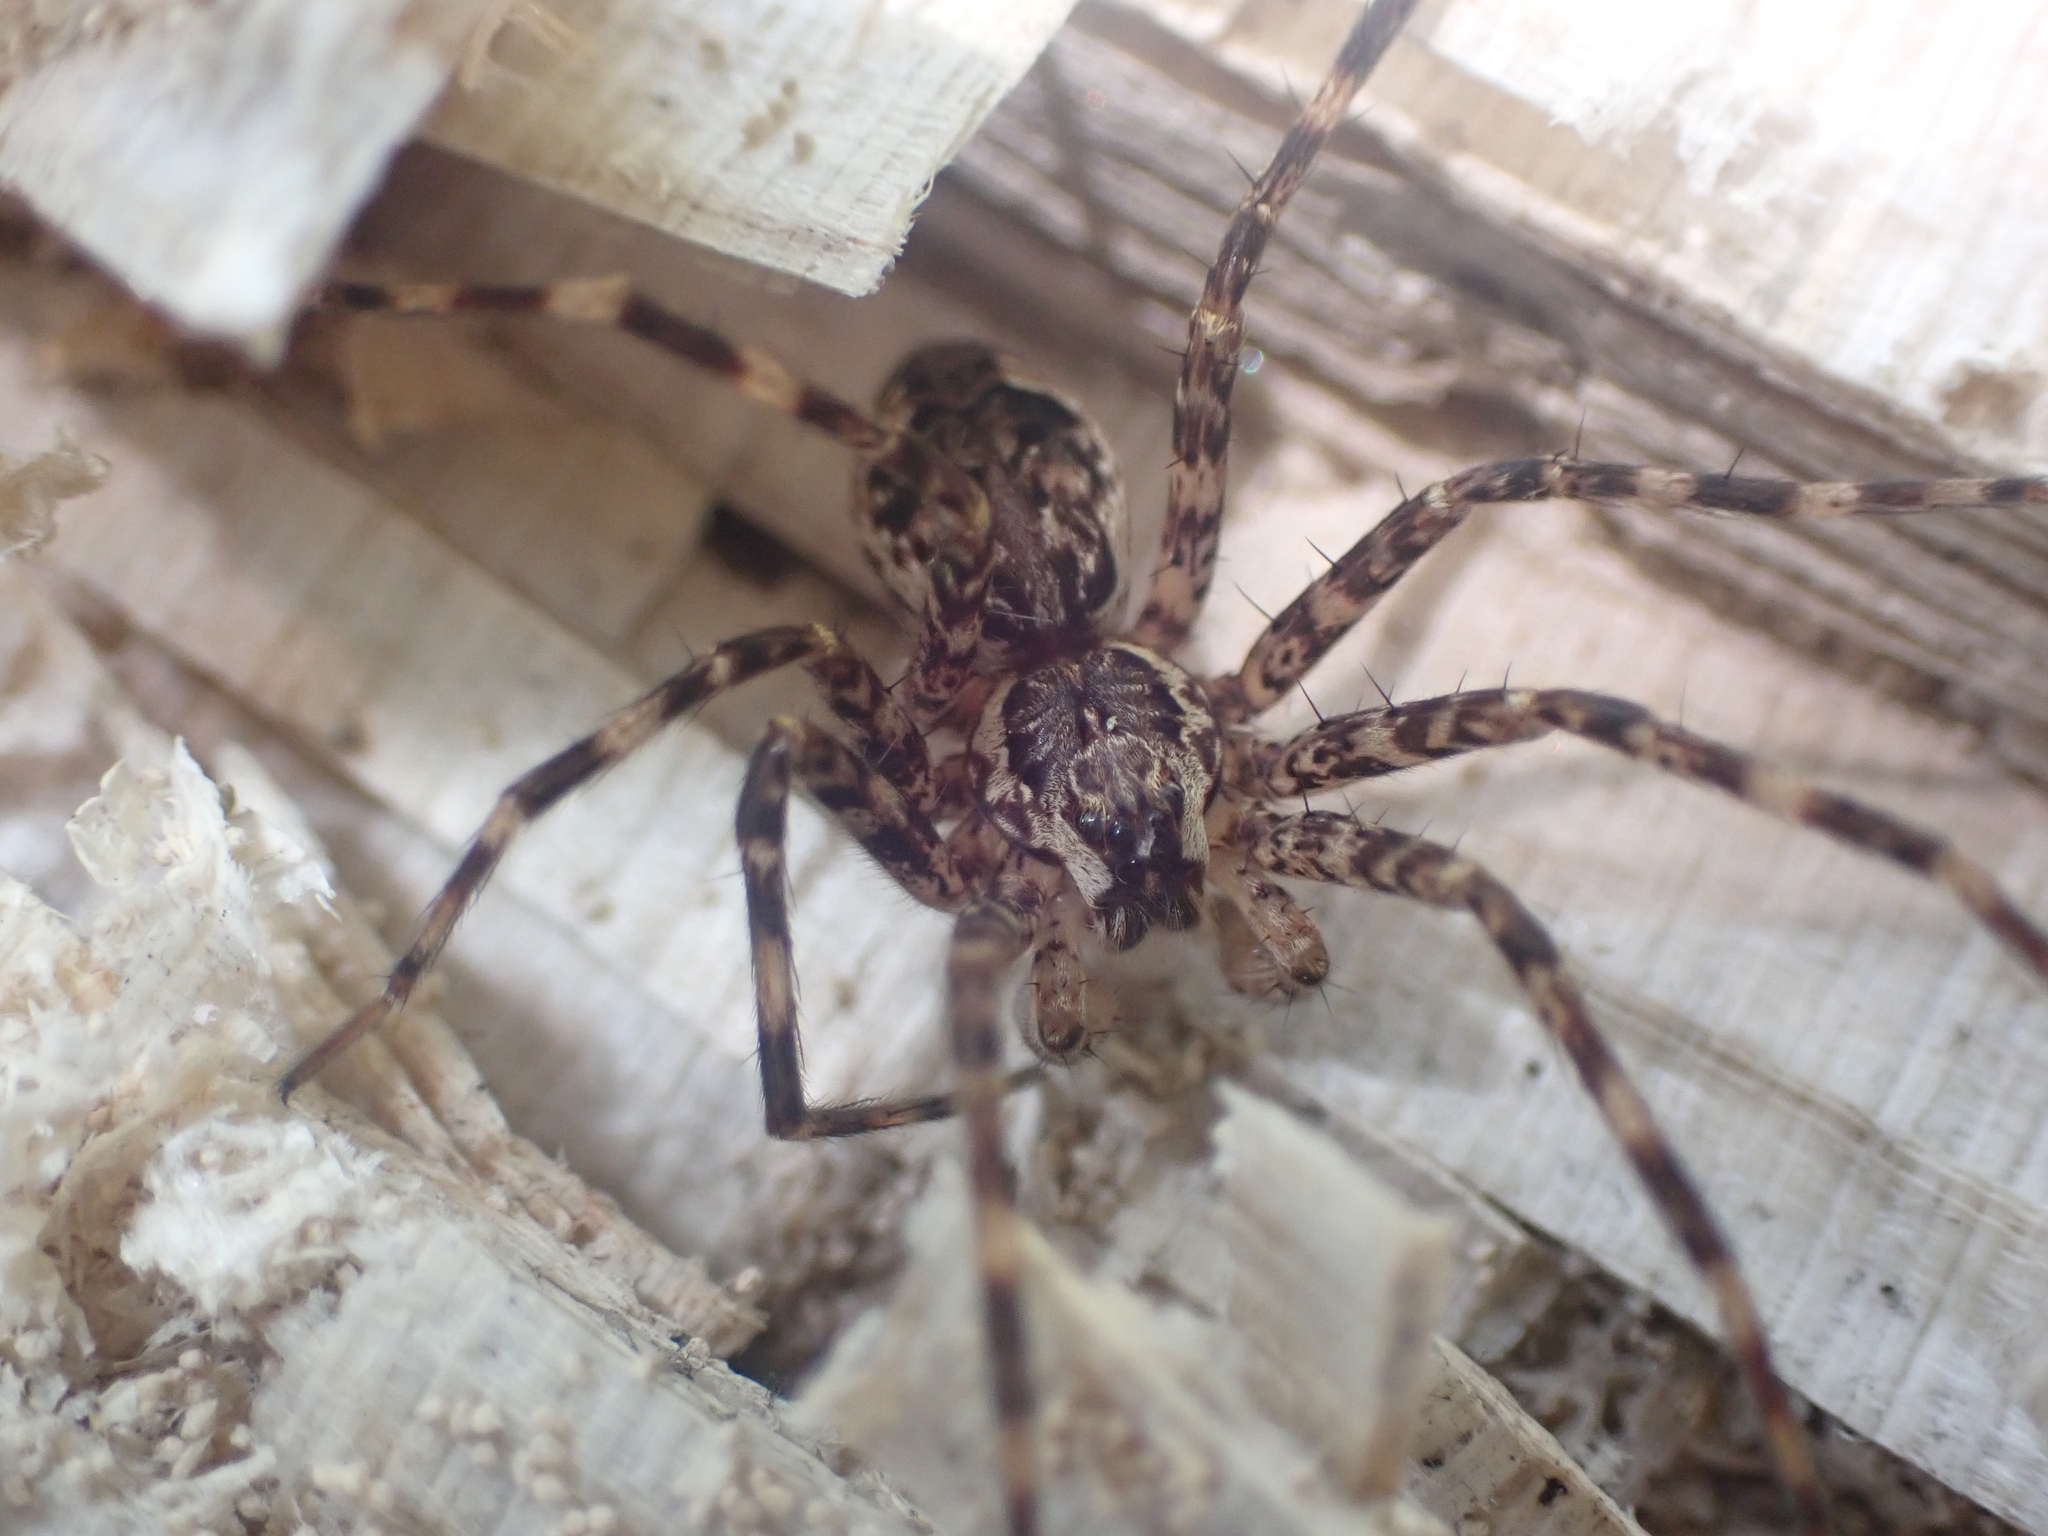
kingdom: Animalia
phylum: Arthropoda
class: Arachnida
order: Araneae
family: Pisauridae
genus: Dolomedes
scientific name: Dolomedes tenebrosus
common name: Dark fishing spider
